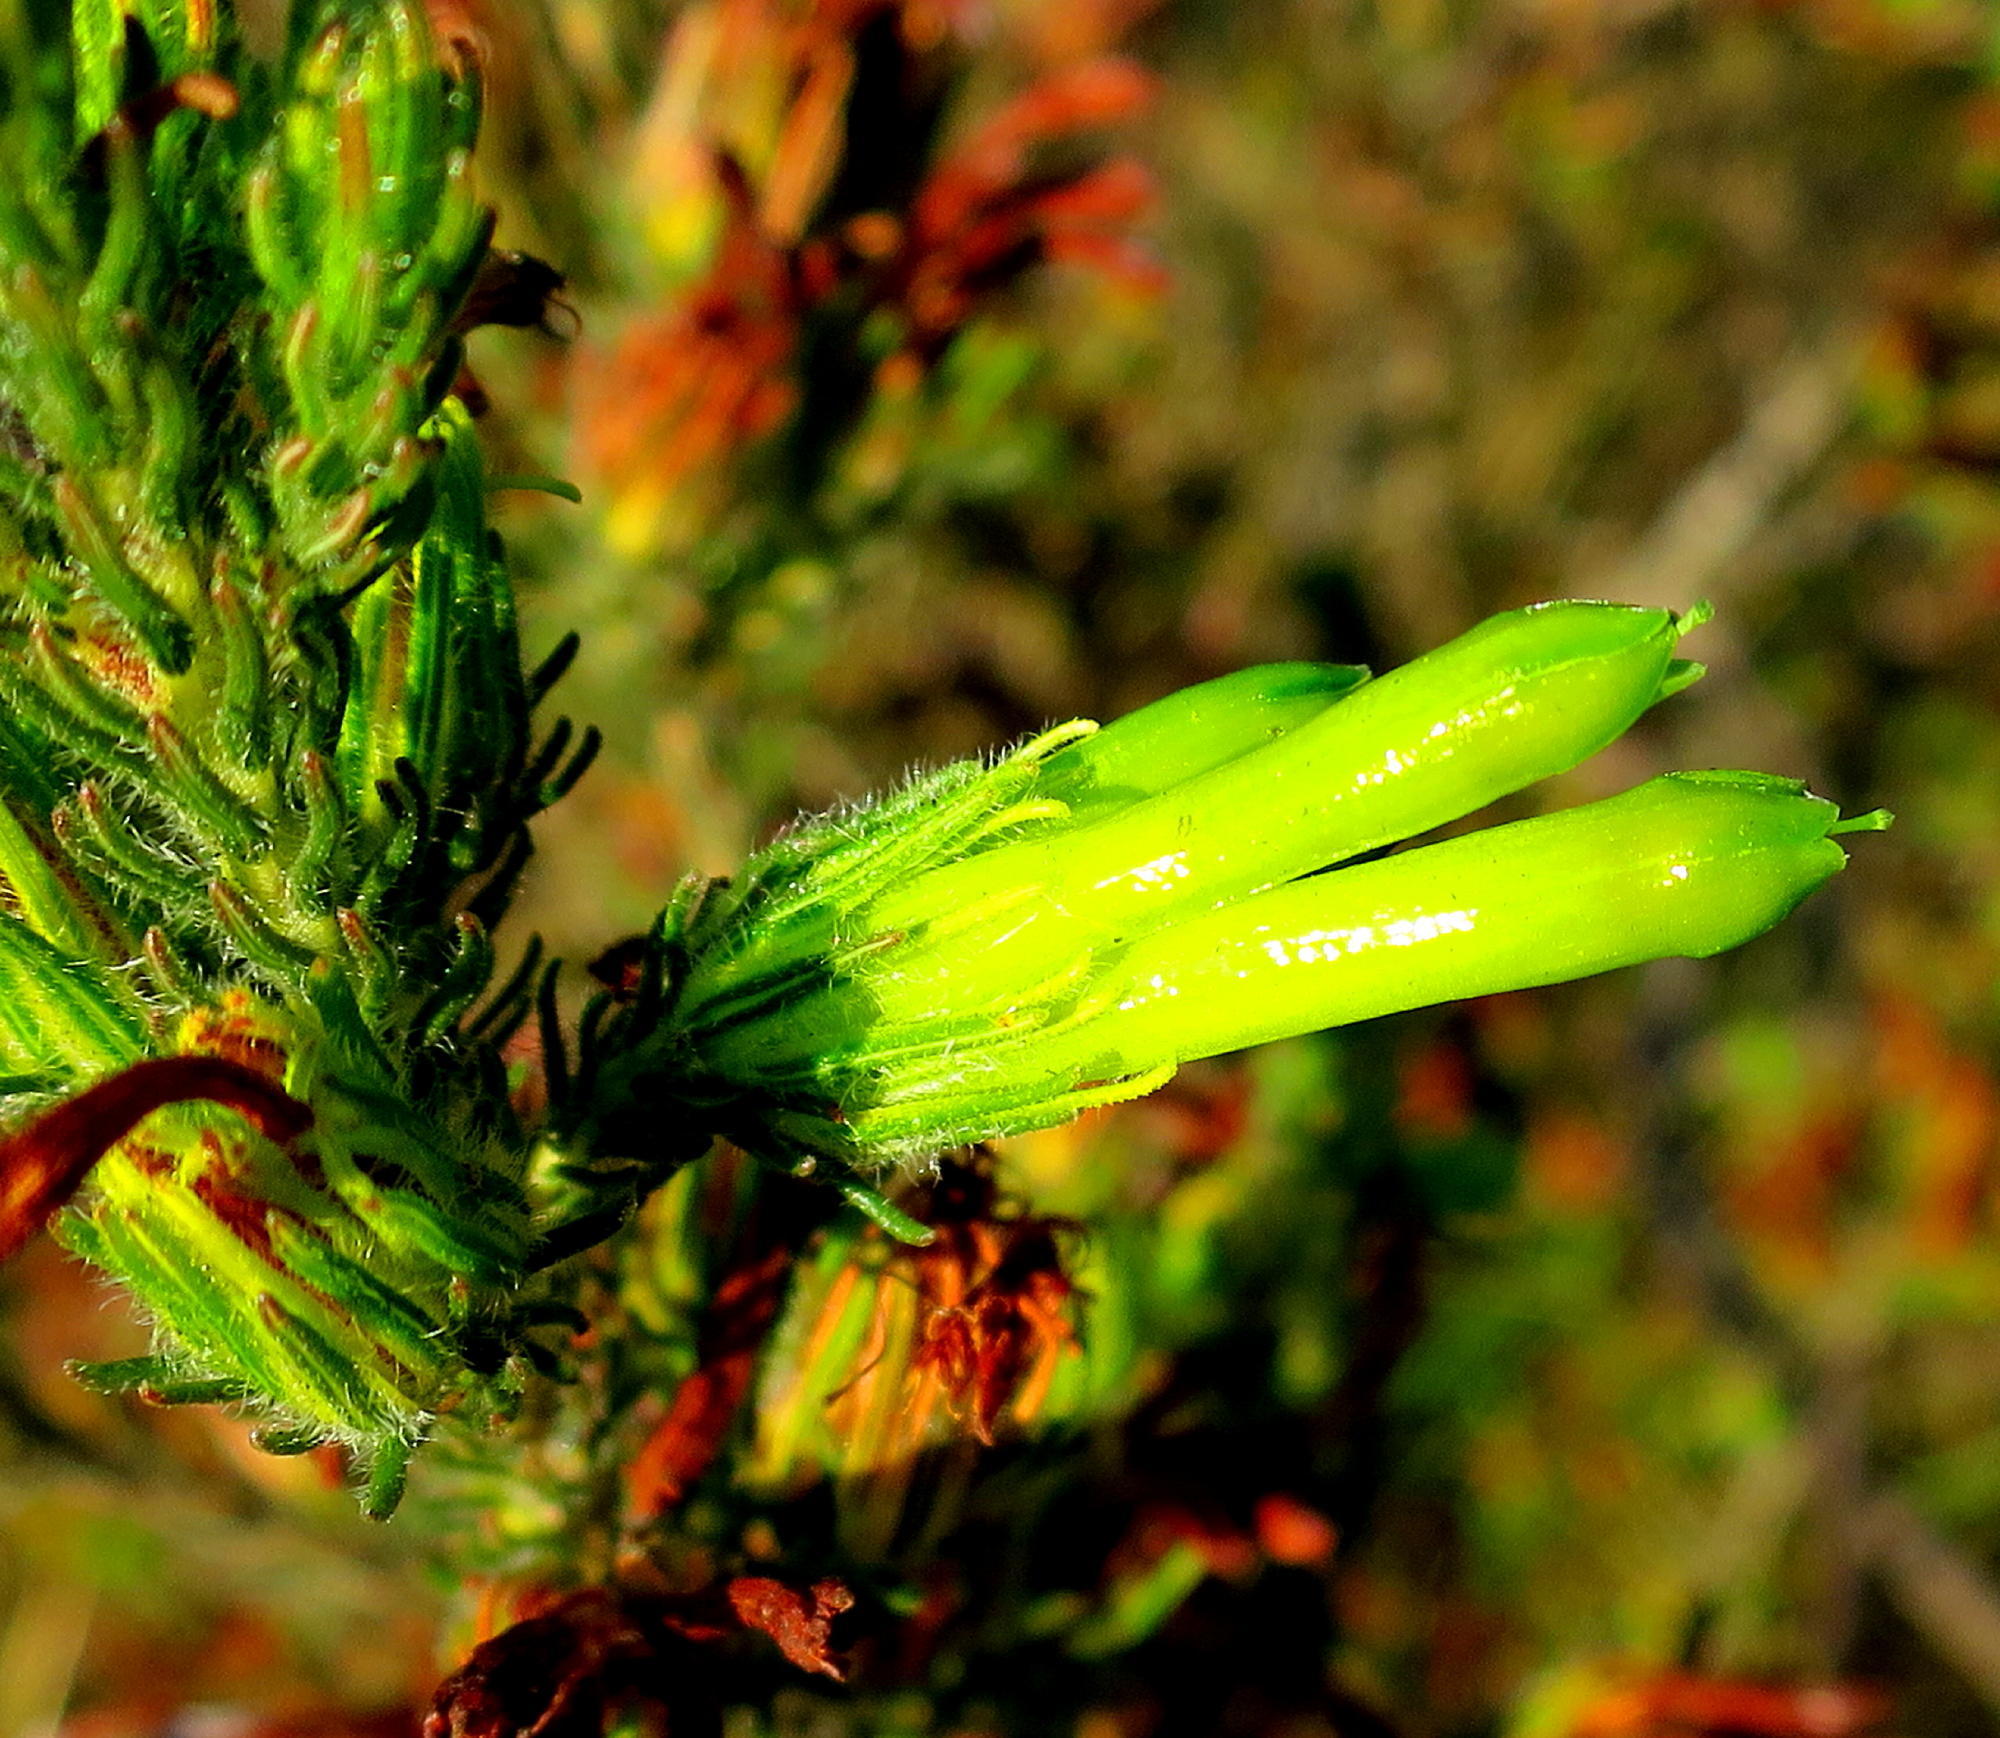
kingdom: Plantae
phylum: Tracheophyta
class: Magnoliopsida
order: Ericales
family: Ericaceae
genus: Erica
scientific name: Erica viridiflora
